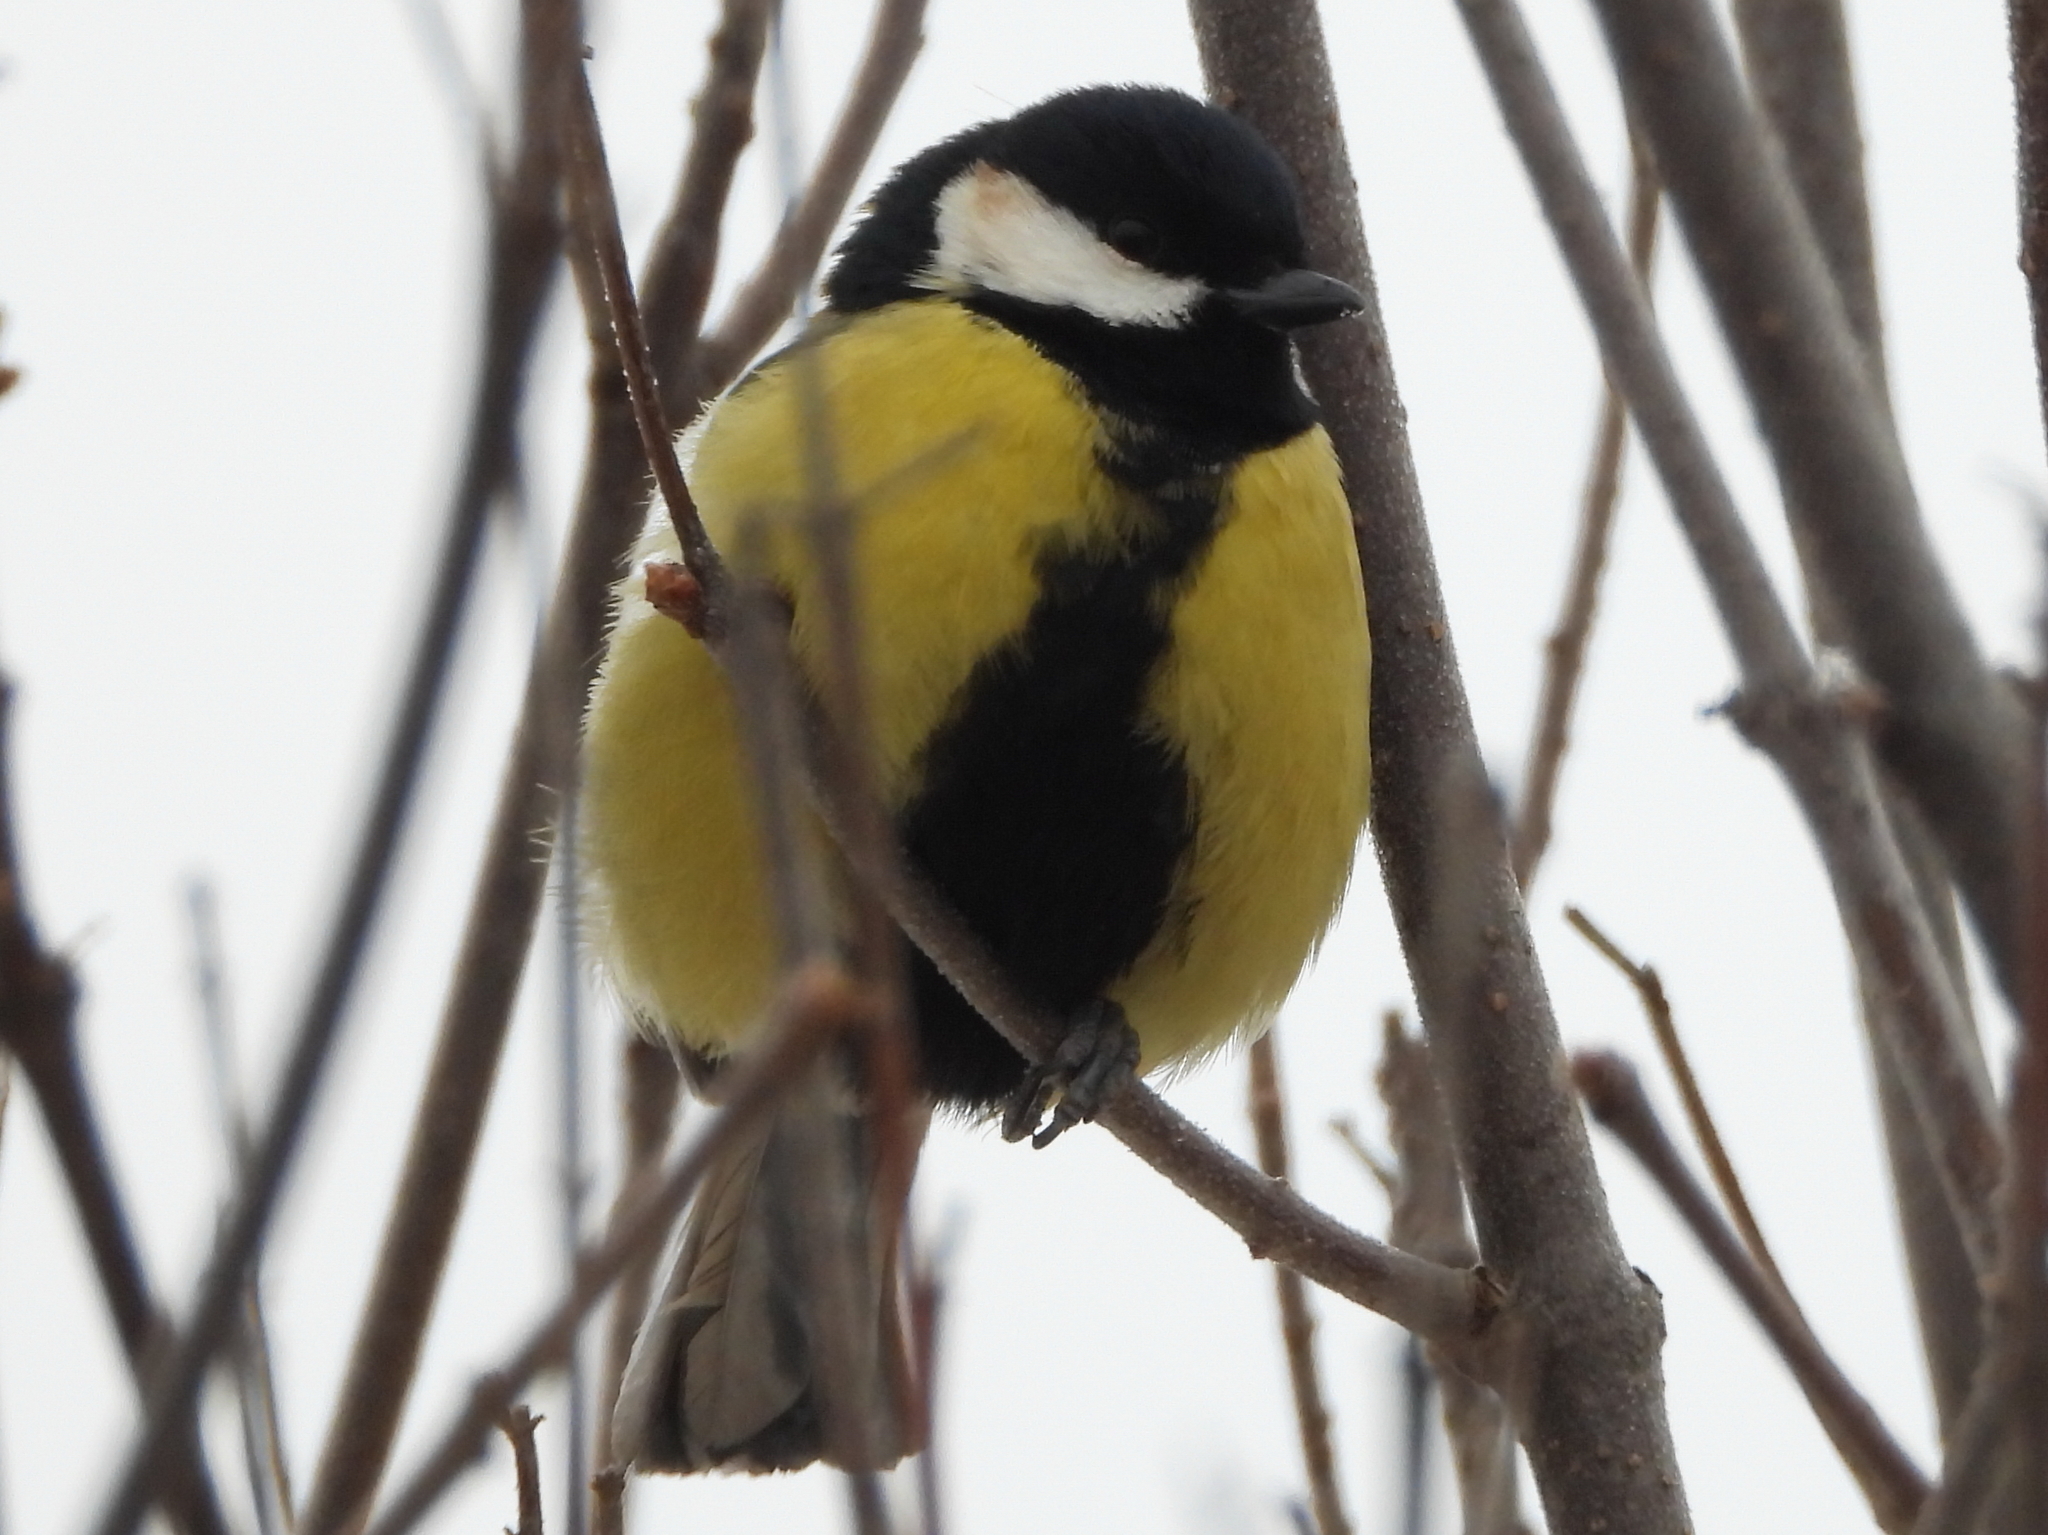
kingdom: Animalia
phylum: Chordata
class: Aves
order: Passeriformes
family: Paridae
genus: Parus
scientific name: Parus major
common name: Great tit
